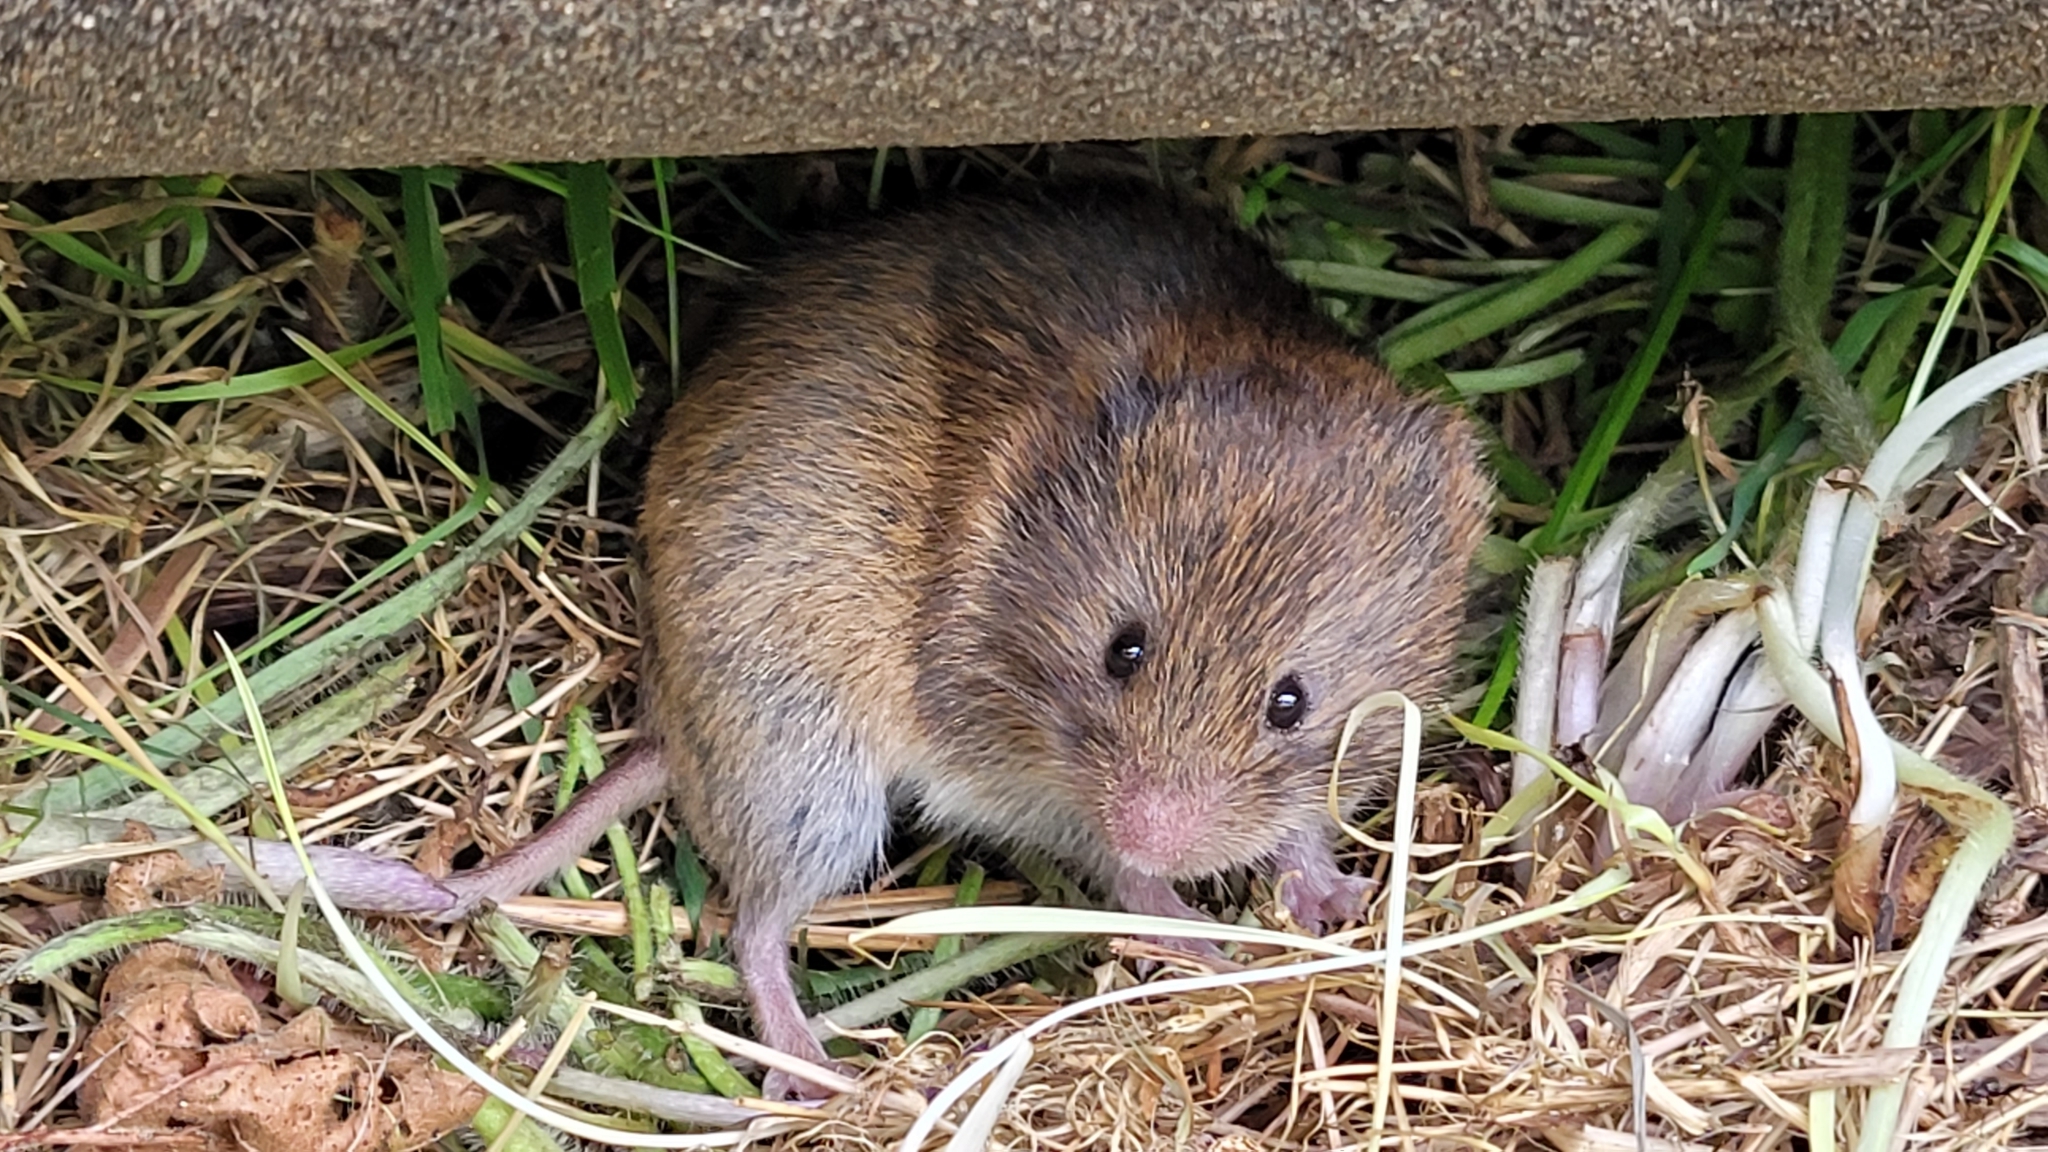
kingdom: Animalia
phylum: Chordata
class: Mammalia
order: Rodentia
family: Cricetidae
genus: Myodes
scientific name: Myodes glareolus
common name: Bank vole
